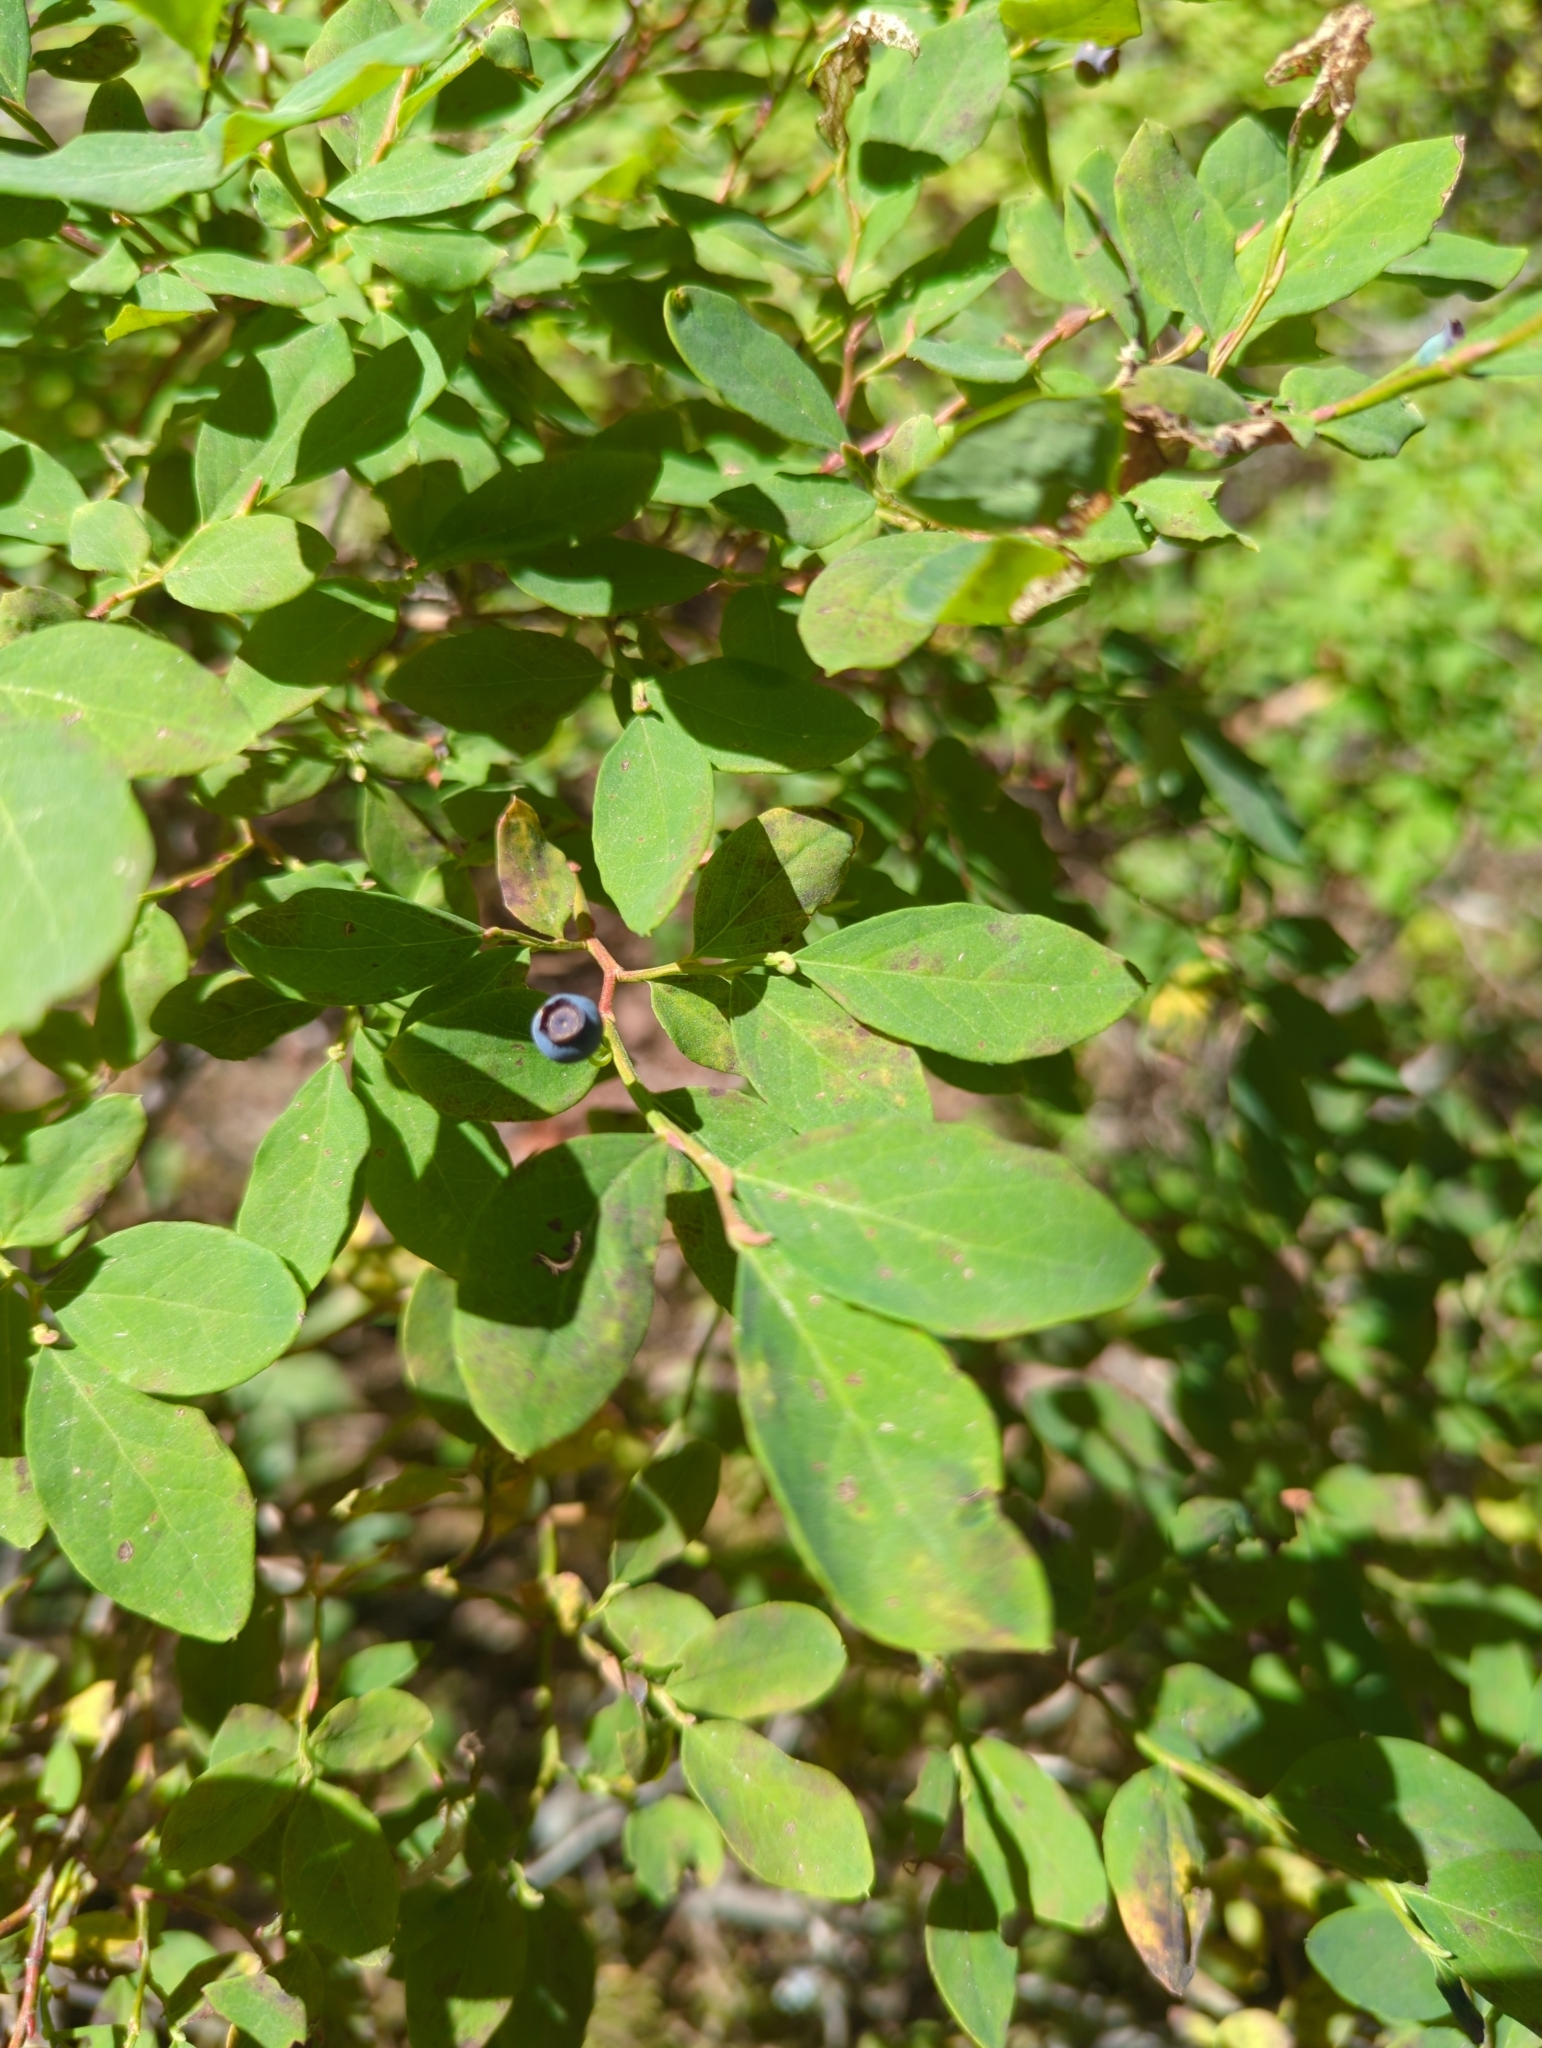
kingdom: Plantae
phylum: Tracheophyta
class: Magnoliopsida
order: Ericales
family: Ericaceae
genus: Vaccinium
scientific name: Vaccinium ovalifolium
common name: Early blueberry
